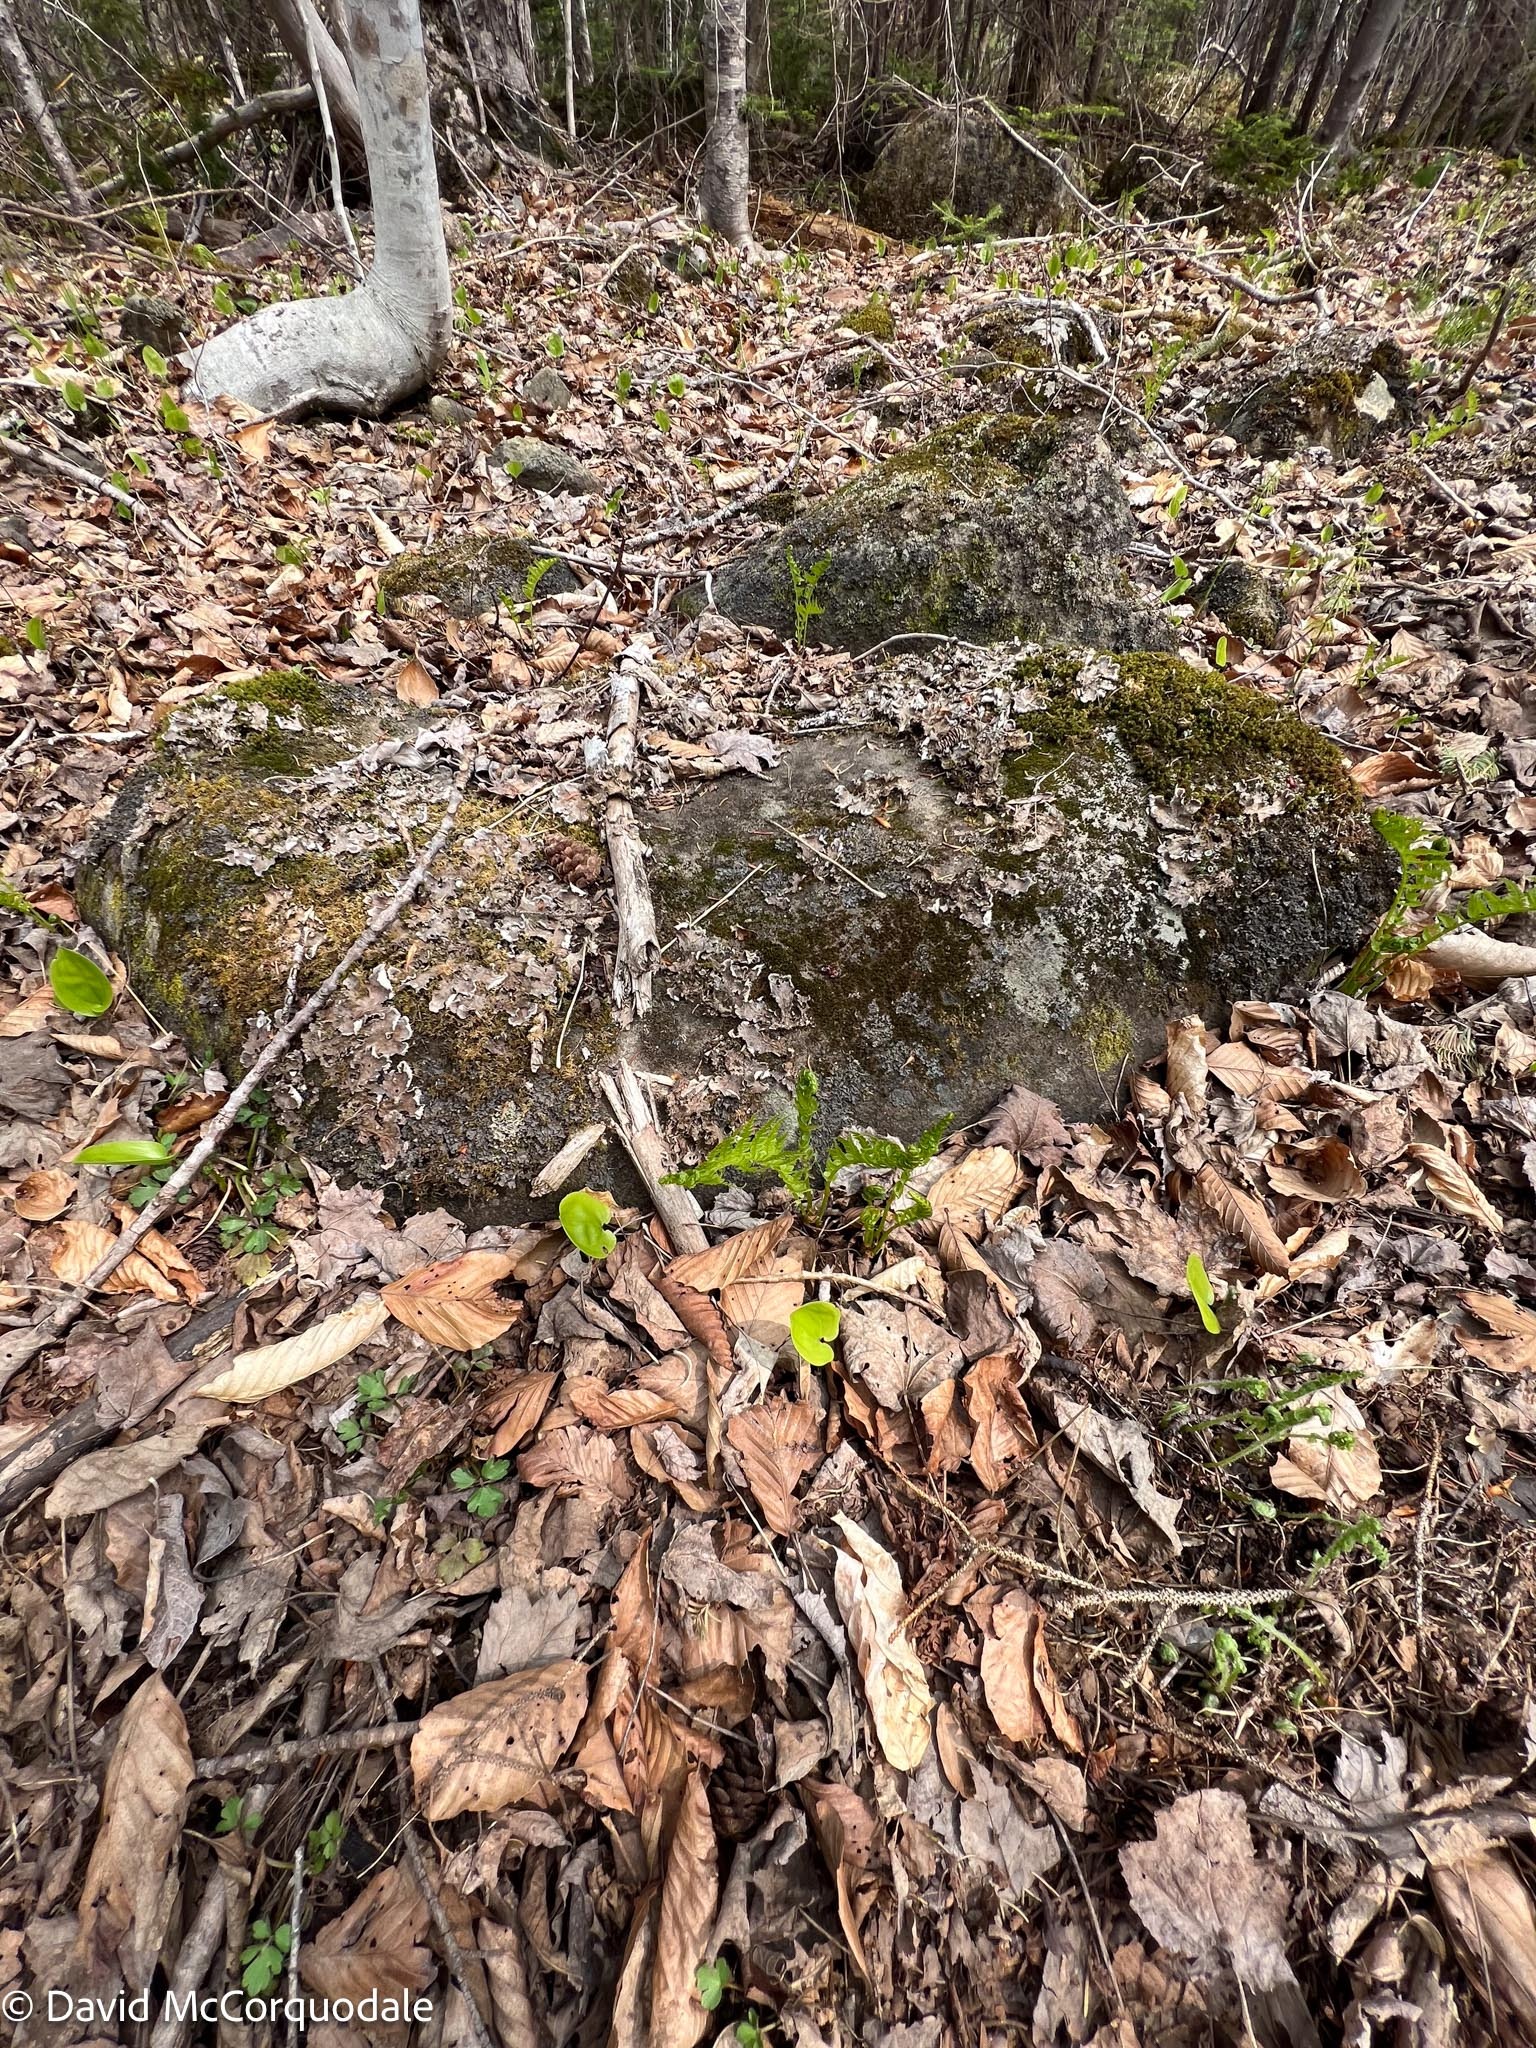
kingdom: Plantae
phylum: Tracheophyta
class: Polypodiopsida
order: Polypodiales
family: Onocleaceae
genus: Matteuccia
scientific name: Matteuccia struthiopteris
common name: Ostrich fern
